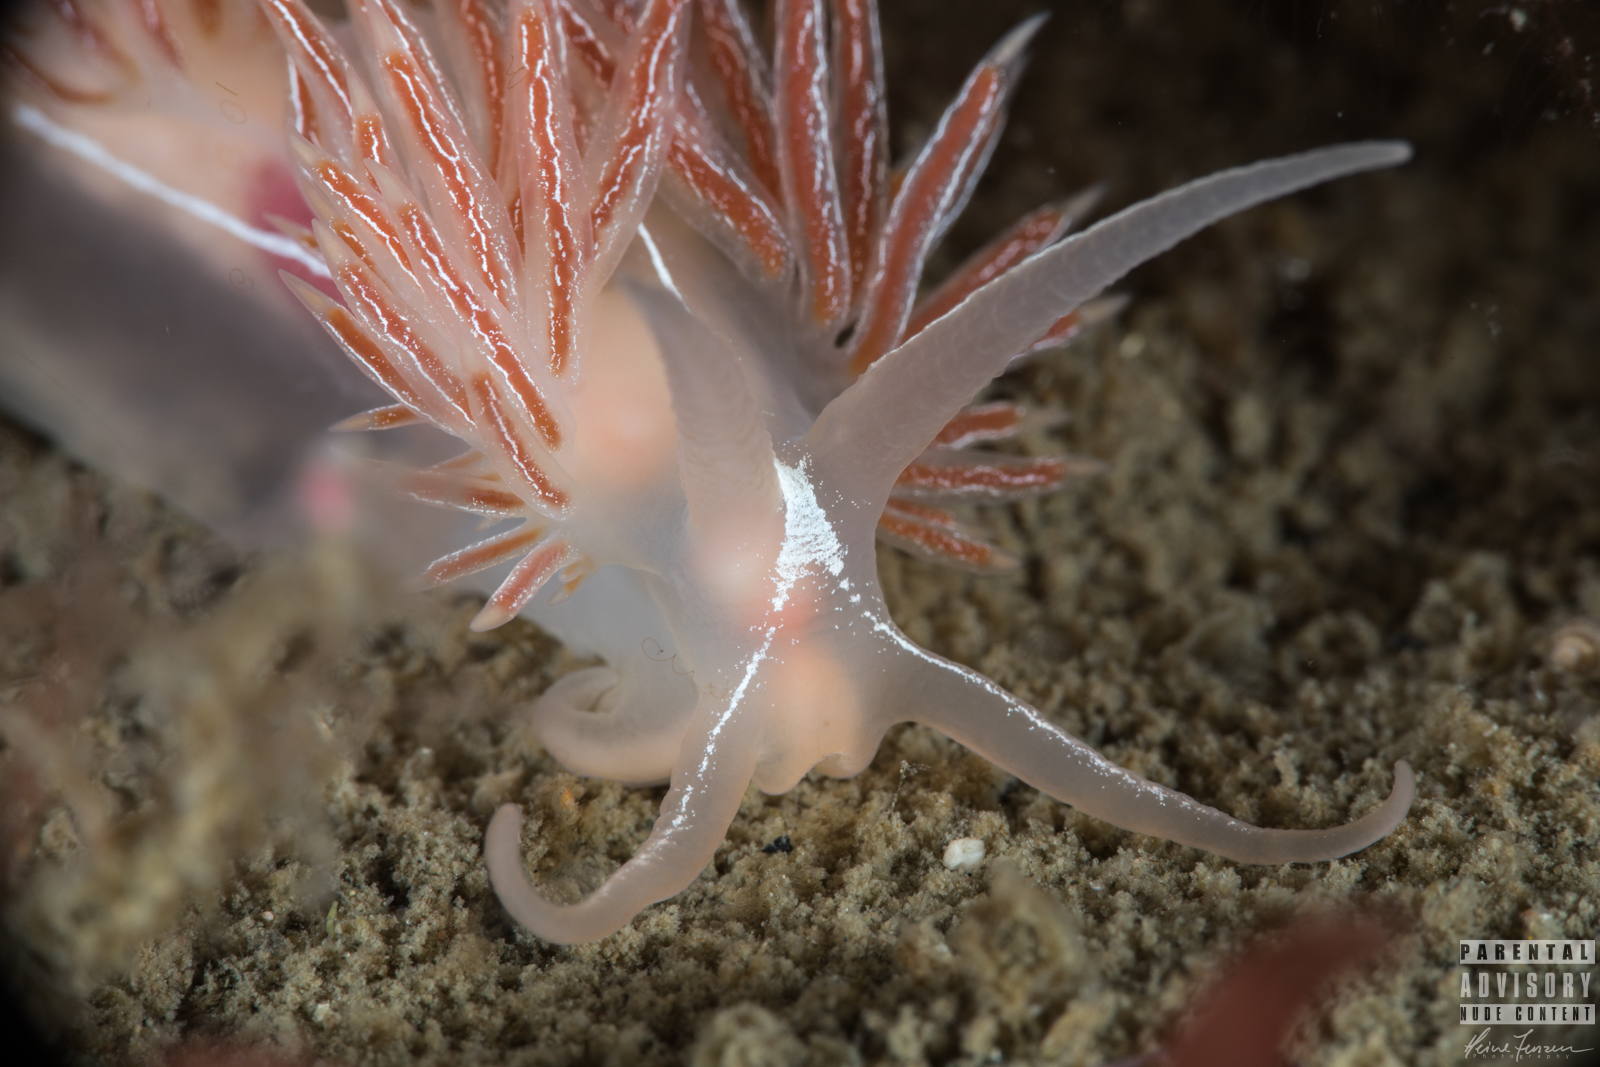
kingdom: Animalia
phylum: Mollusca
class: Gastropoda
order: Nudibranchia
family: Coryphellidae
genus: Coryphella
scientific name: Coryphella chriskaugei
